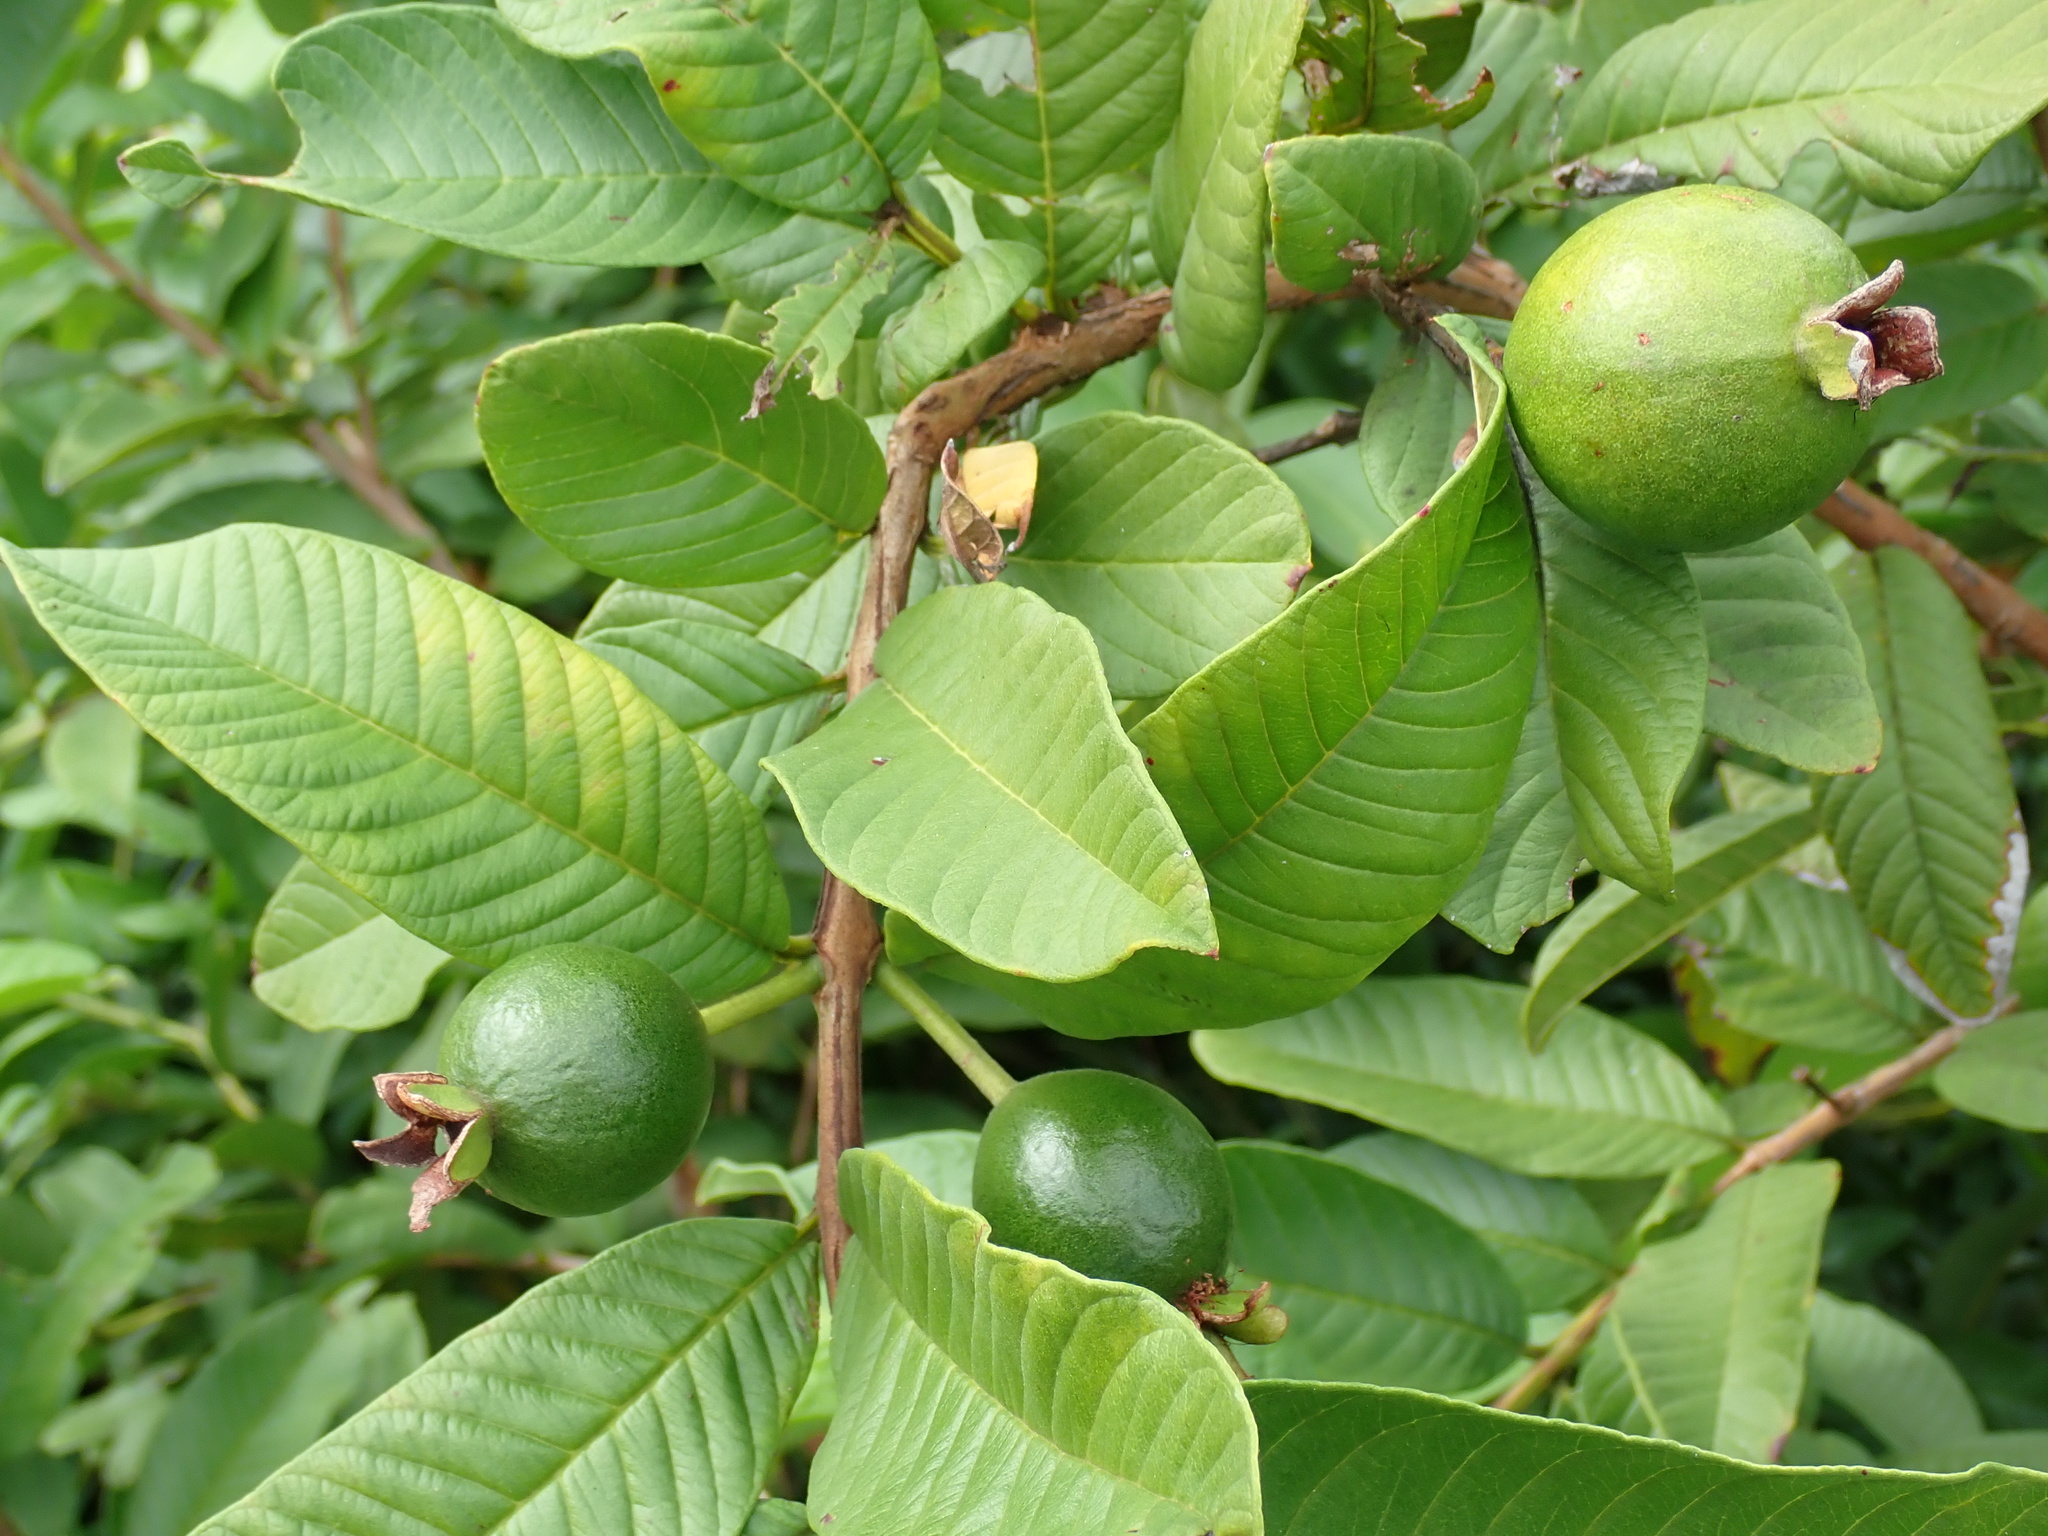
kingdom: Plantae
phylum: Tracheophyta
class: Magnoliopsida
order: Myrtales
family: Myrtaceae
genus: Psidium
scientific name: Psidium guajava
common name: Guava
